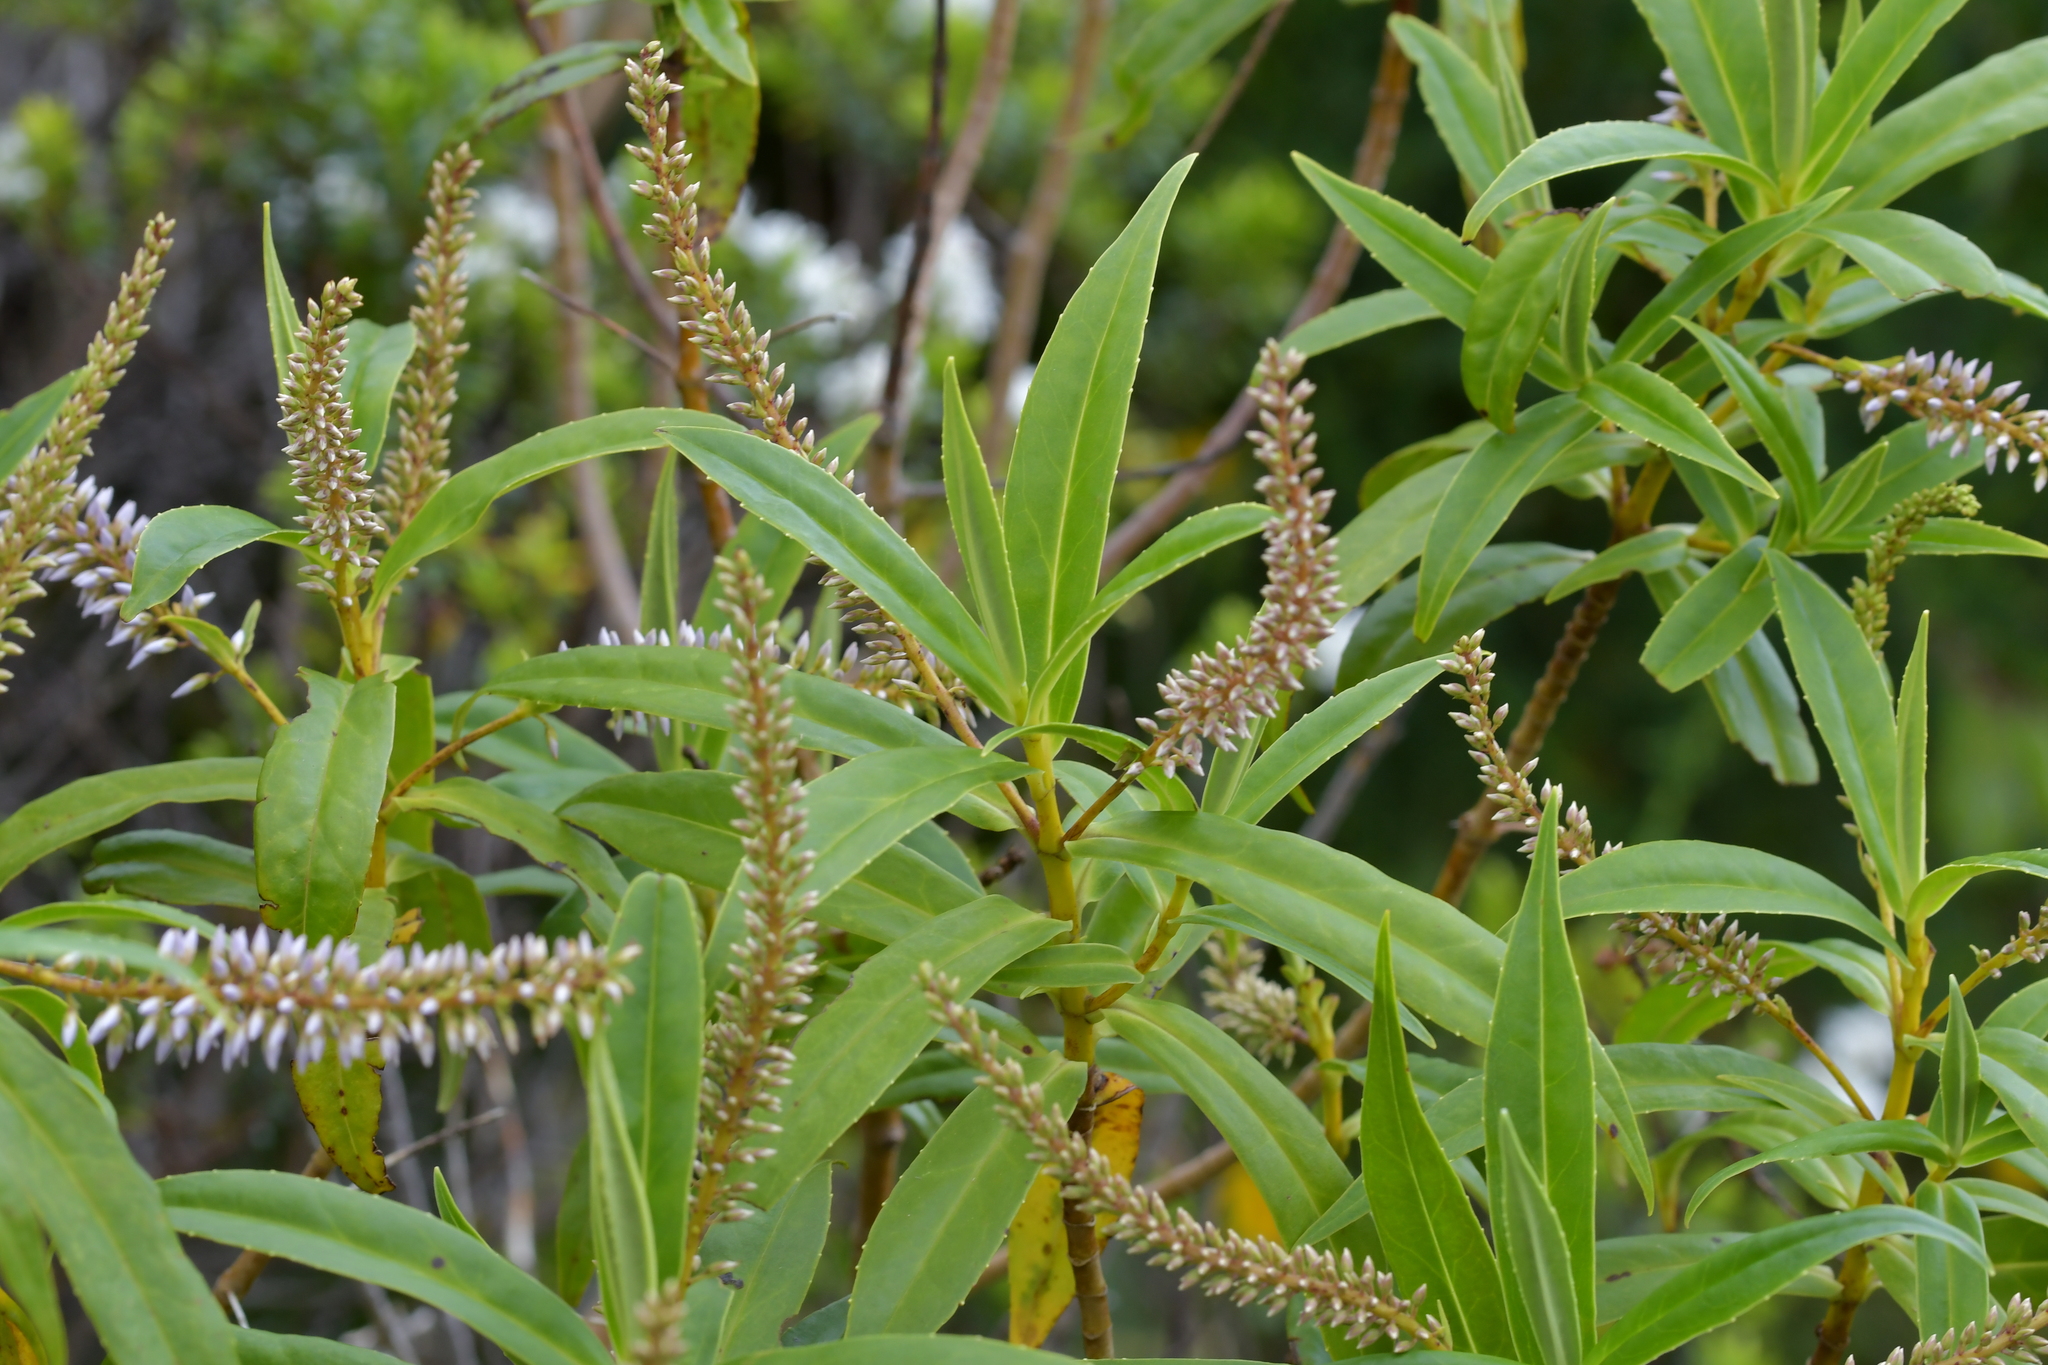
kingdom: Plantae
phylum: Tracheophyta
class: Magnoliopsida
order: Lamiales
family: Plantaginaceae
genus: Veronica
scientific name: Veronica salicifolia
